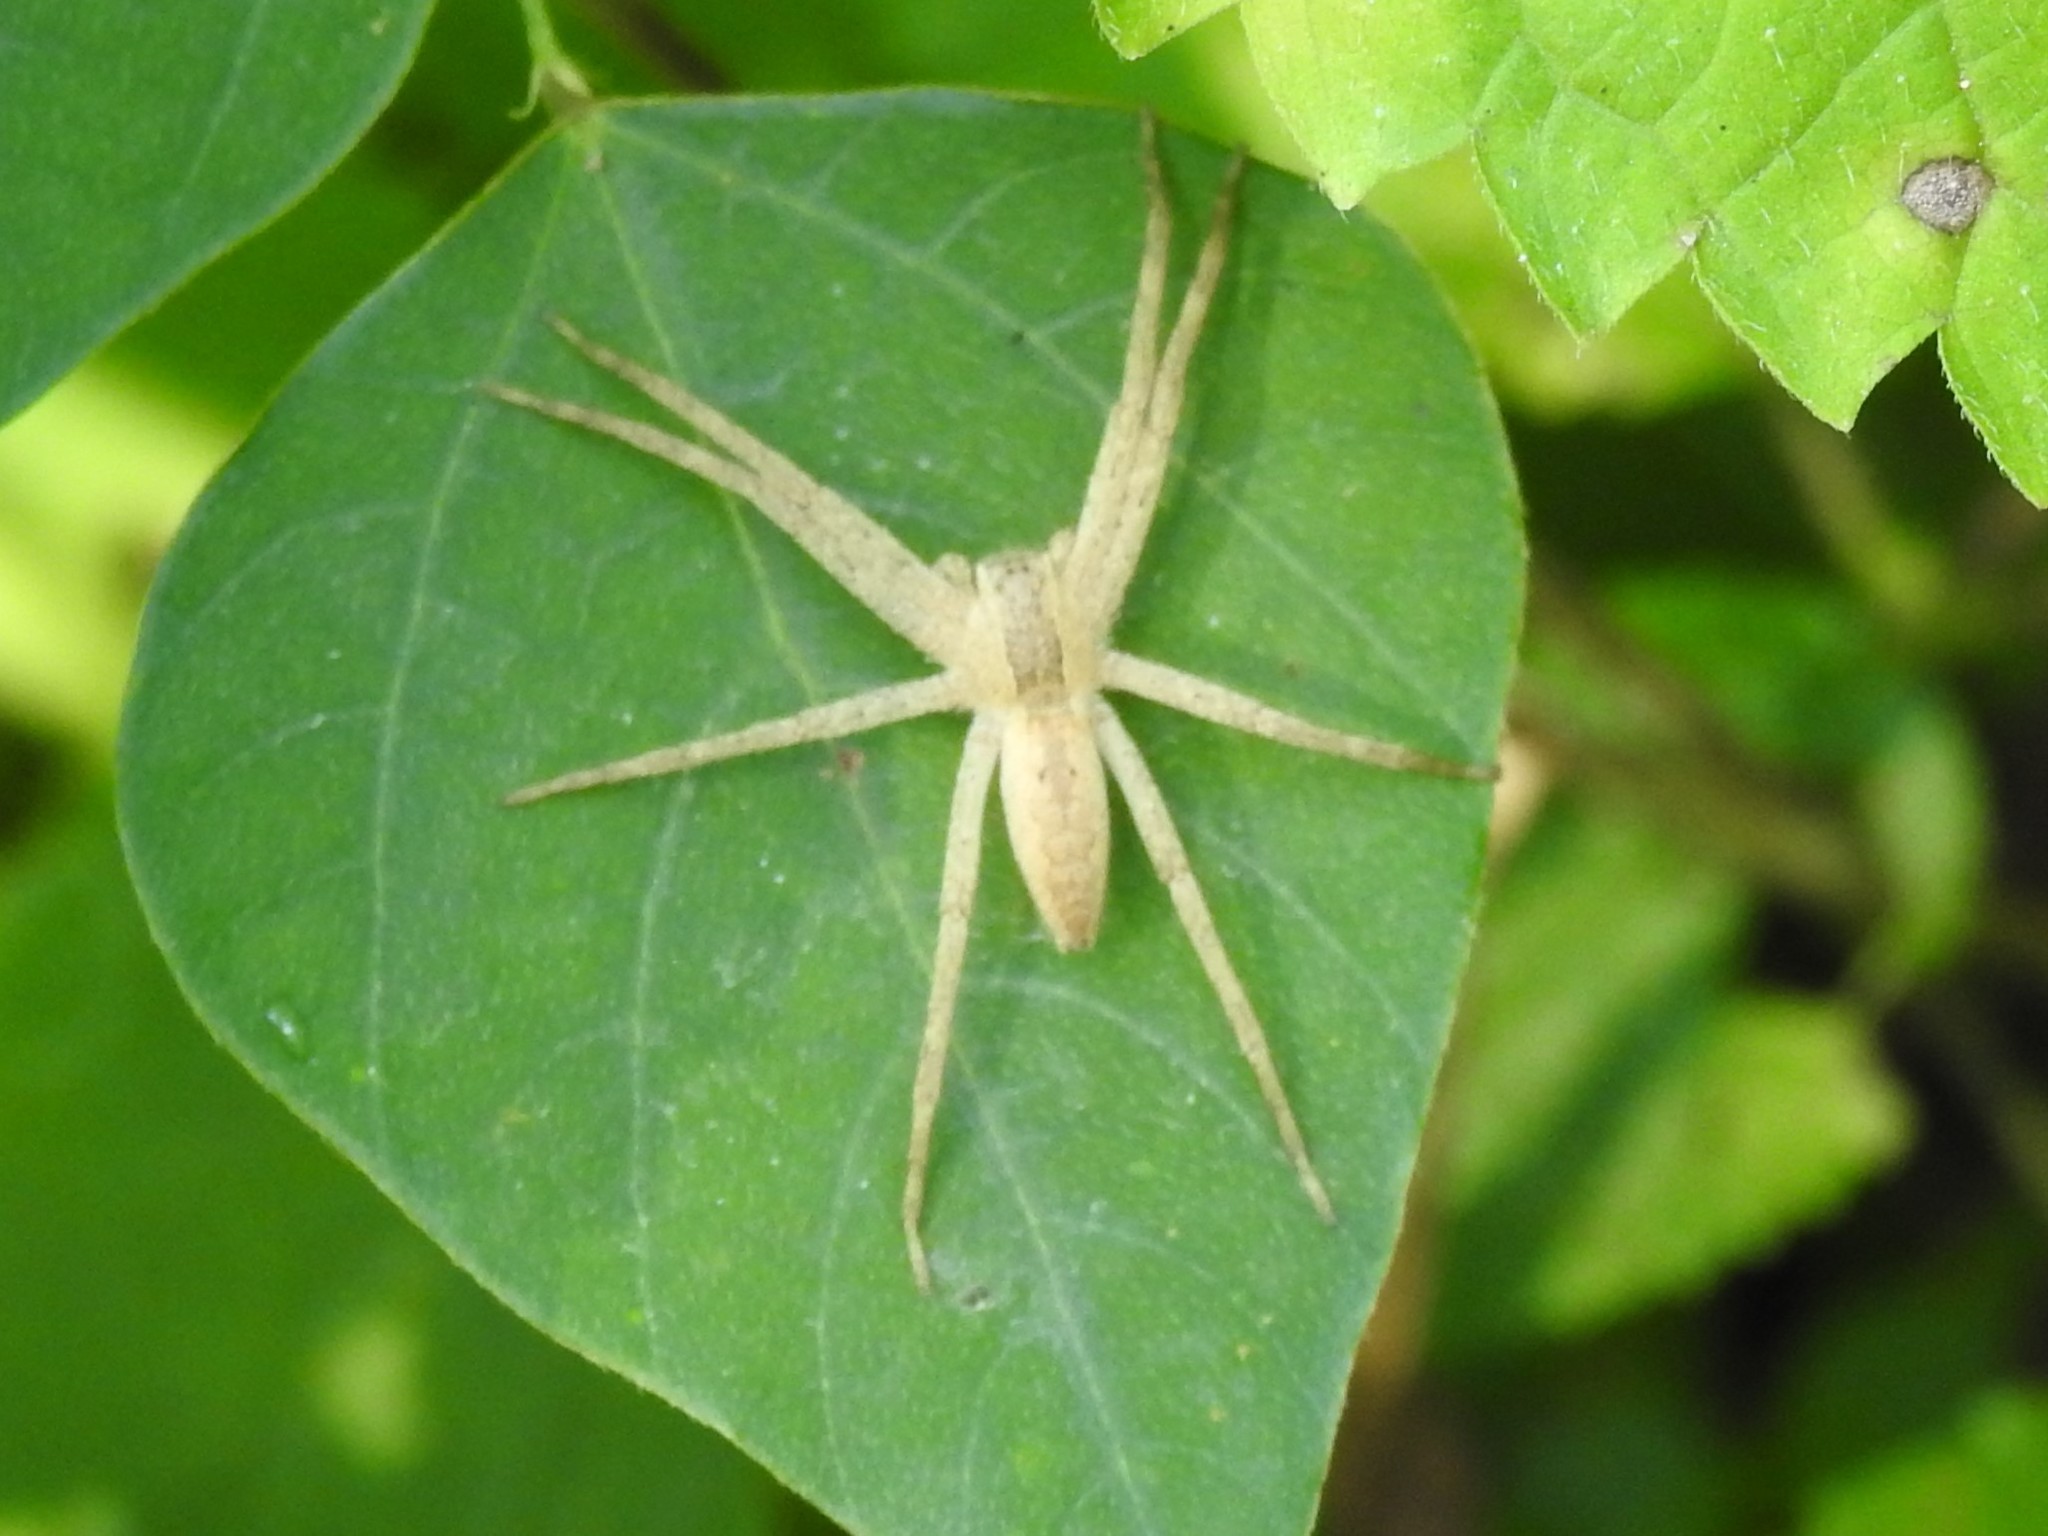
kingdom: Animalia
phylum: Arthropoda
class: Arachnida
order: Araneae
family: Pisauridae
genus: Pisaurina
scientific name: Pisaurina mira
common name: American nursery web spider
